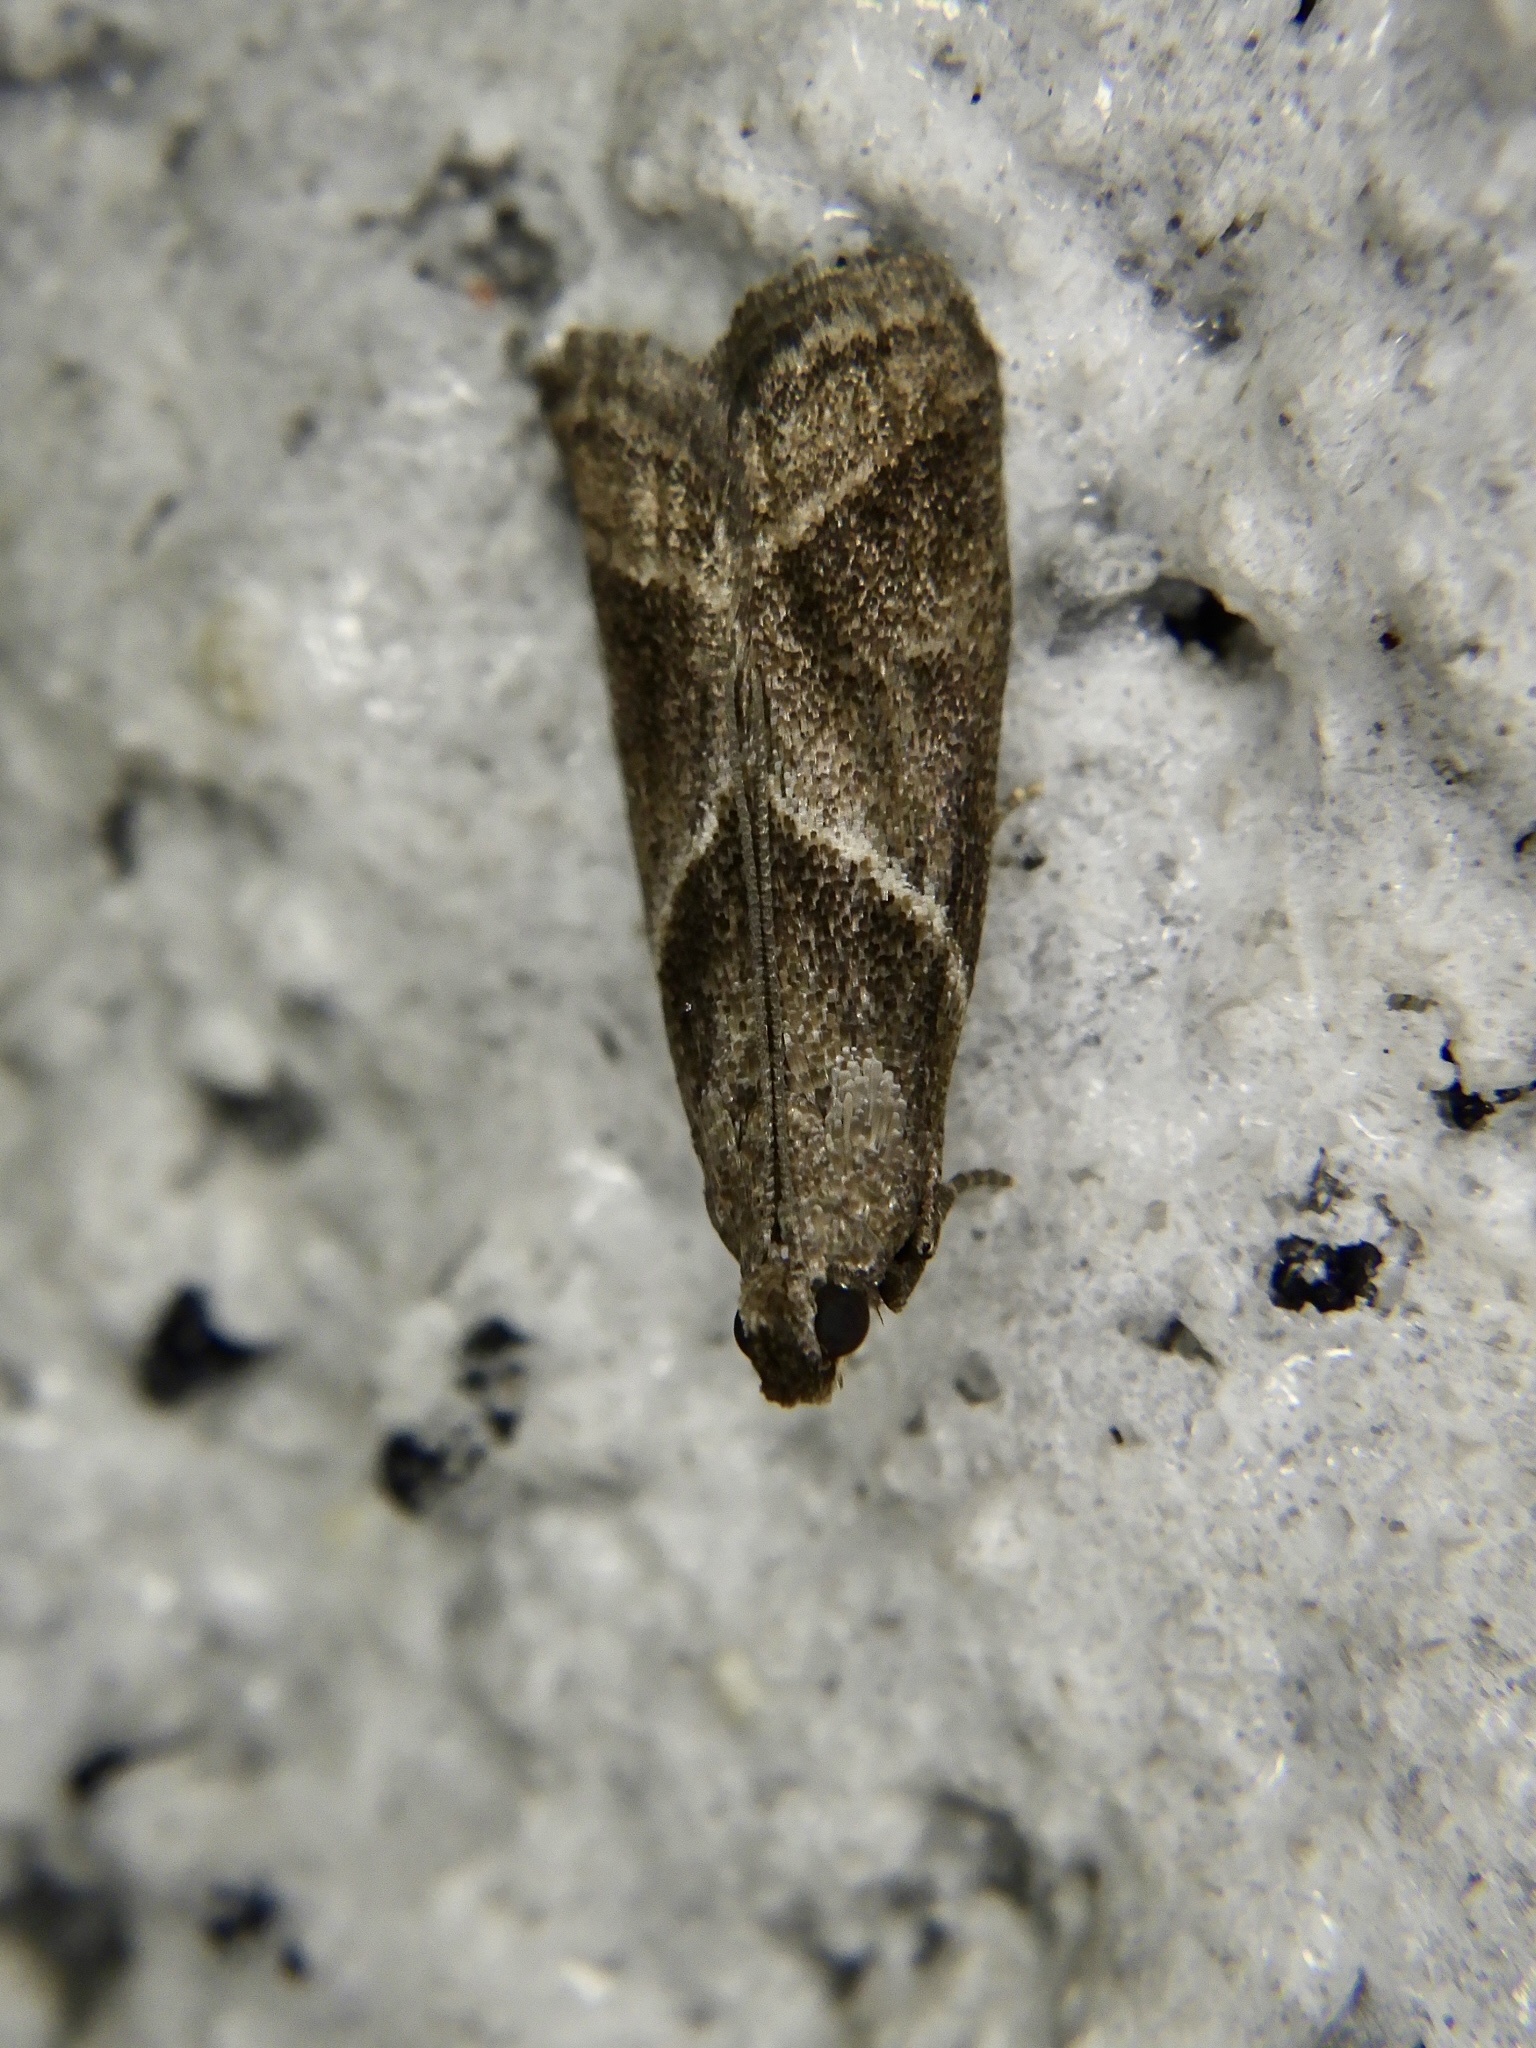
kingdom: Animalia
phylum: Arthropoda
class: Insecta
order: Lepidoptera
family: Pyralidae
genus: Nyctegretis
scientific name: Nyctegretis triangulella
